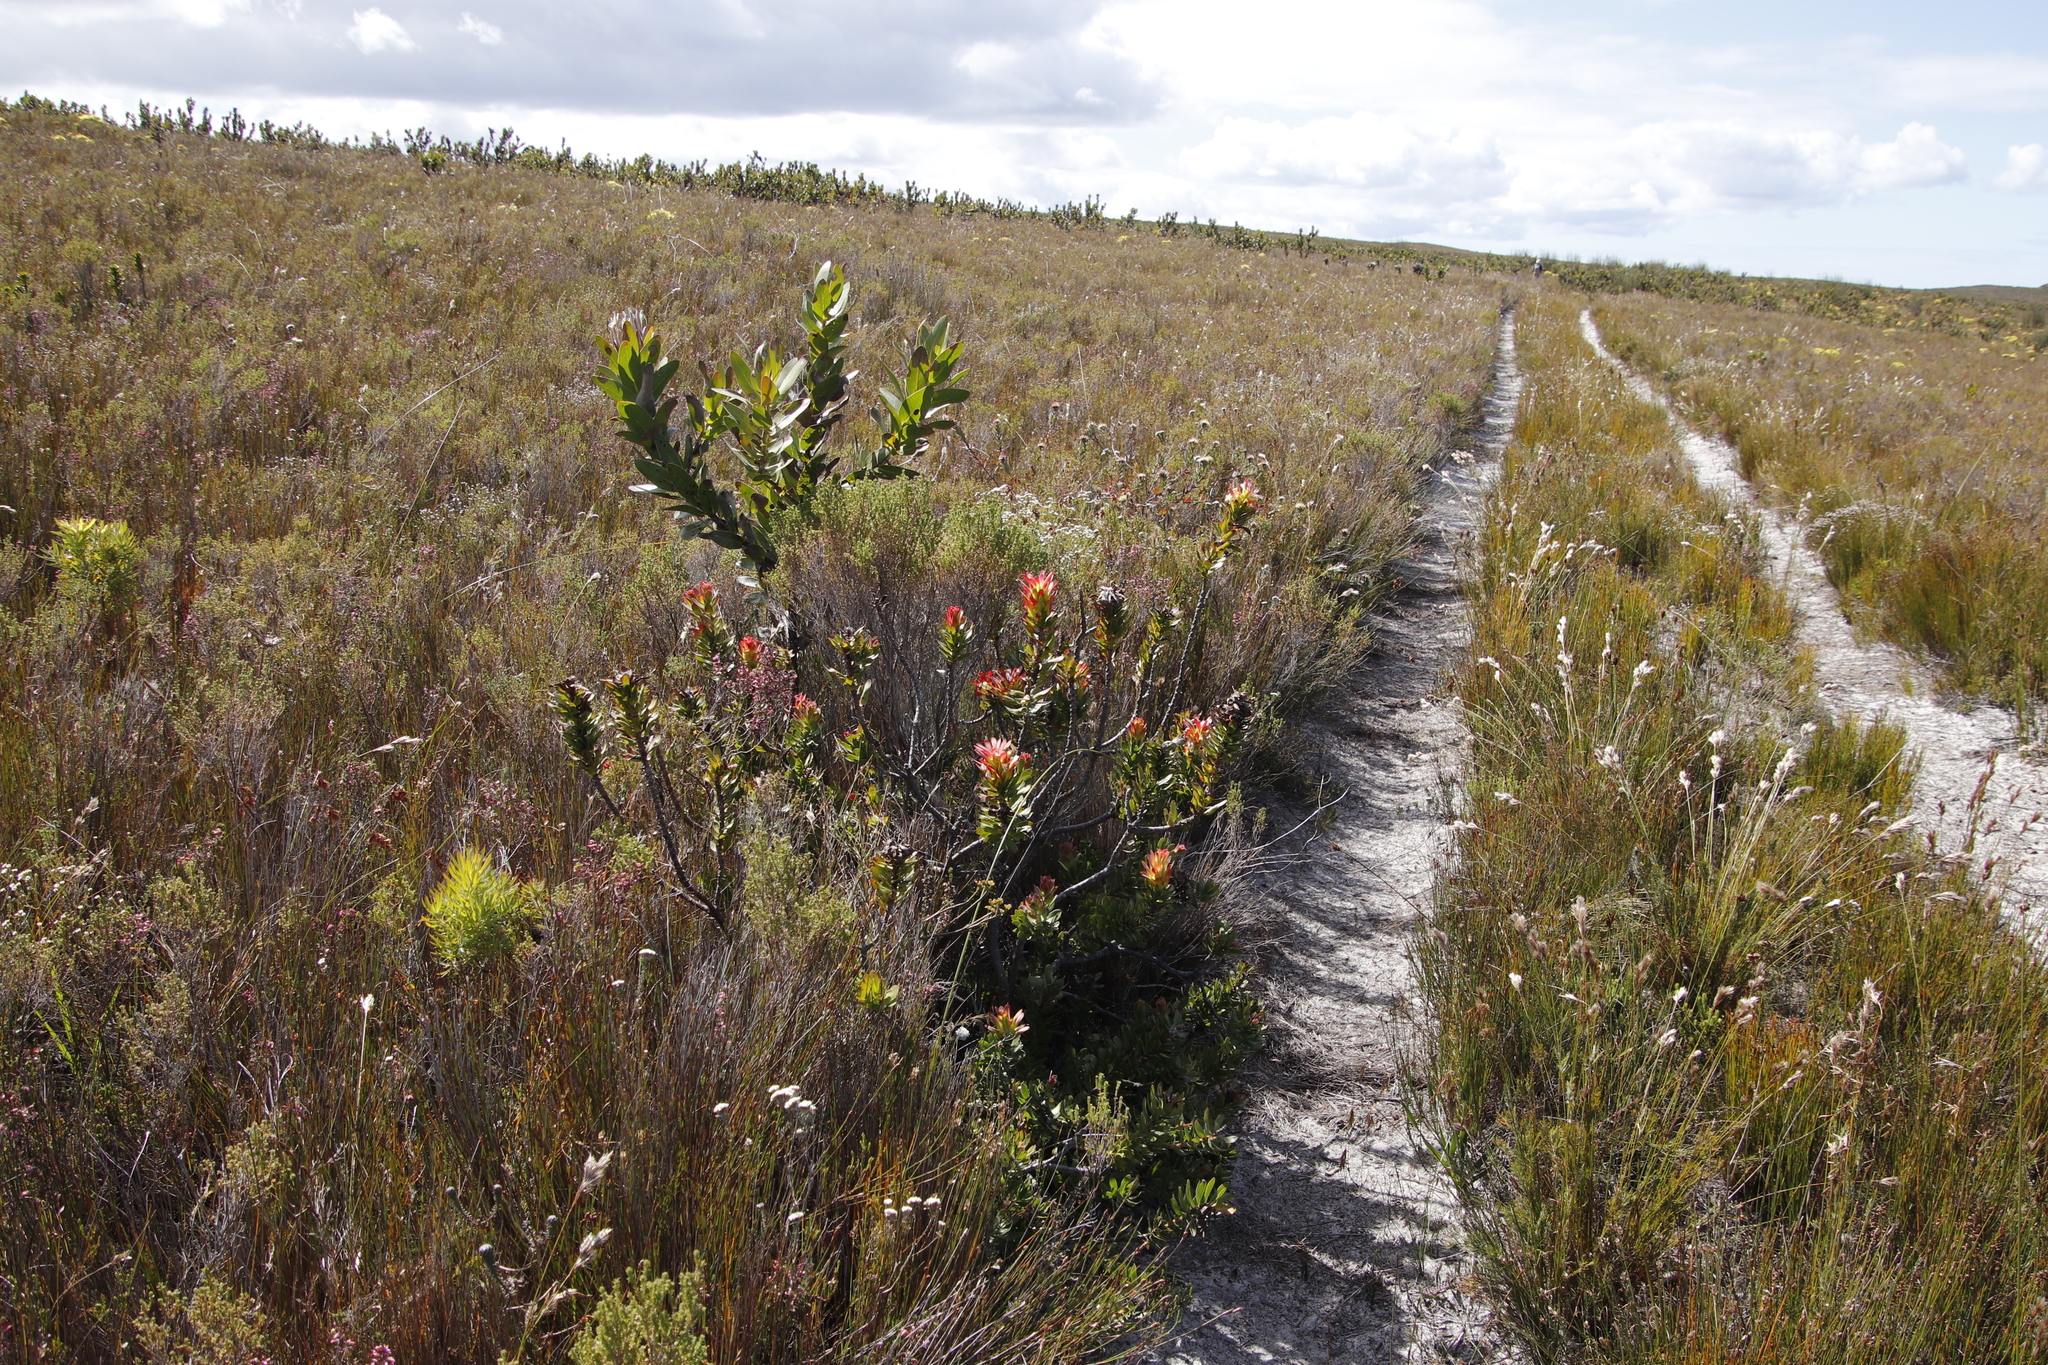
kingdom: Plantae
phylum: Tracheophyta
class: Magnoliopsida
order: Proteales
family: Proteaceae
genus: Mimetes
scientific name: Mimetes cucullatus
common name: Common pagoda
